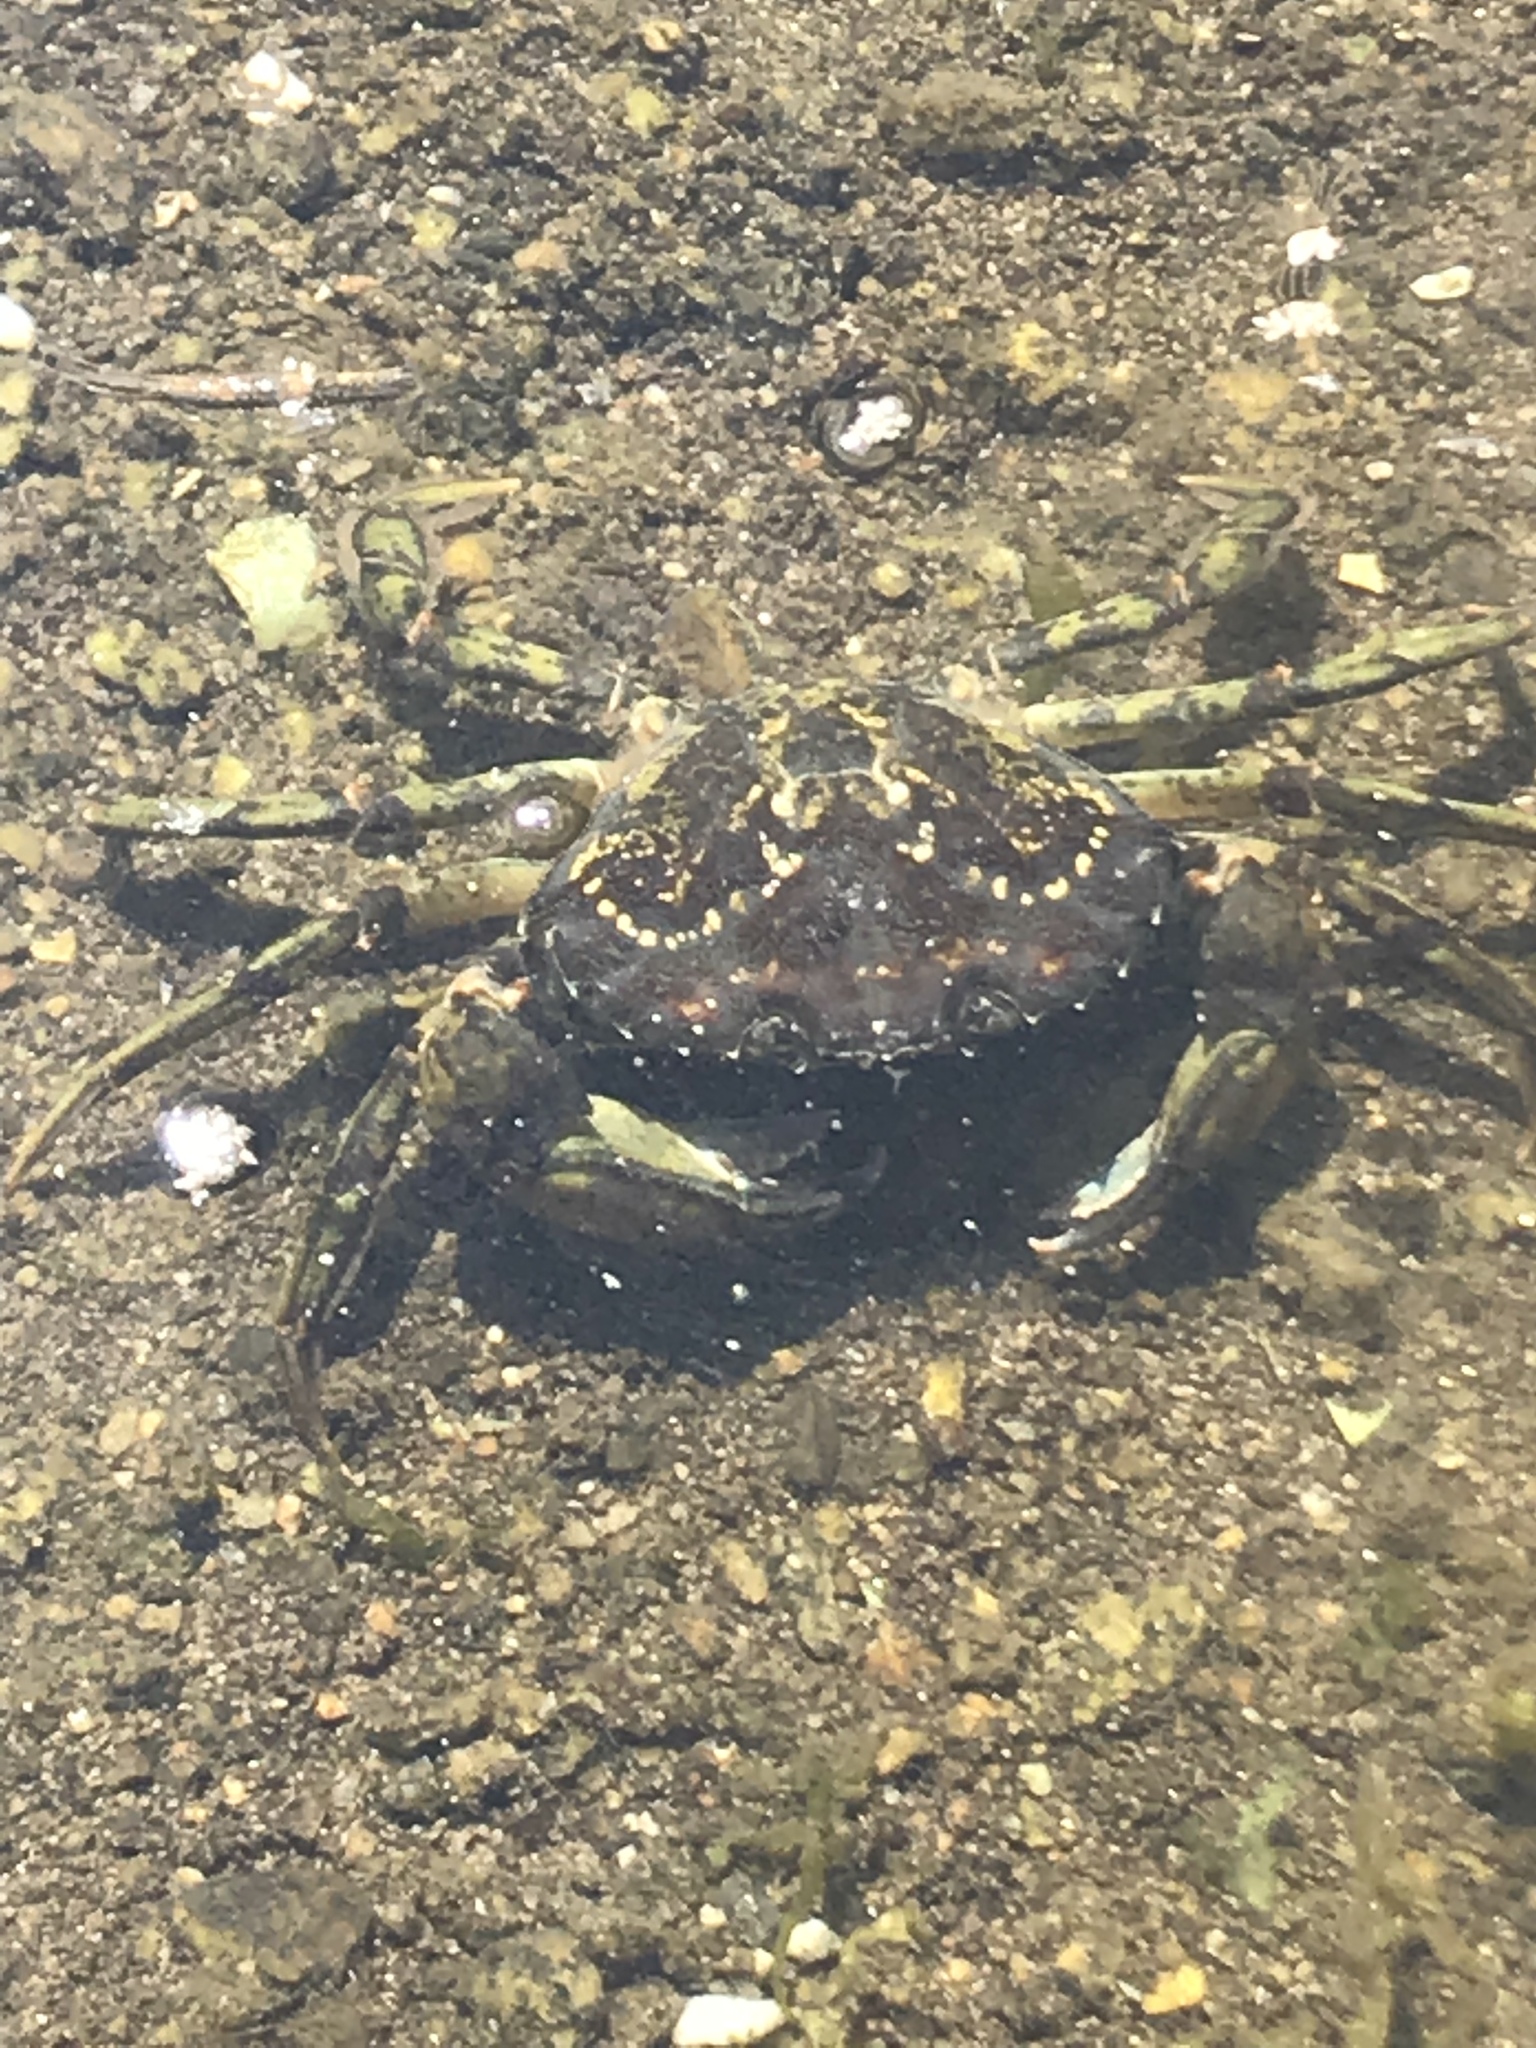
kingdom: Animalia
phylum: Arthropoda
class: Malacostraca
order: Decapoda
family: Carcinidae
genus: Carcinus
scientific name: Carcinus maenas
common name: European green crab
